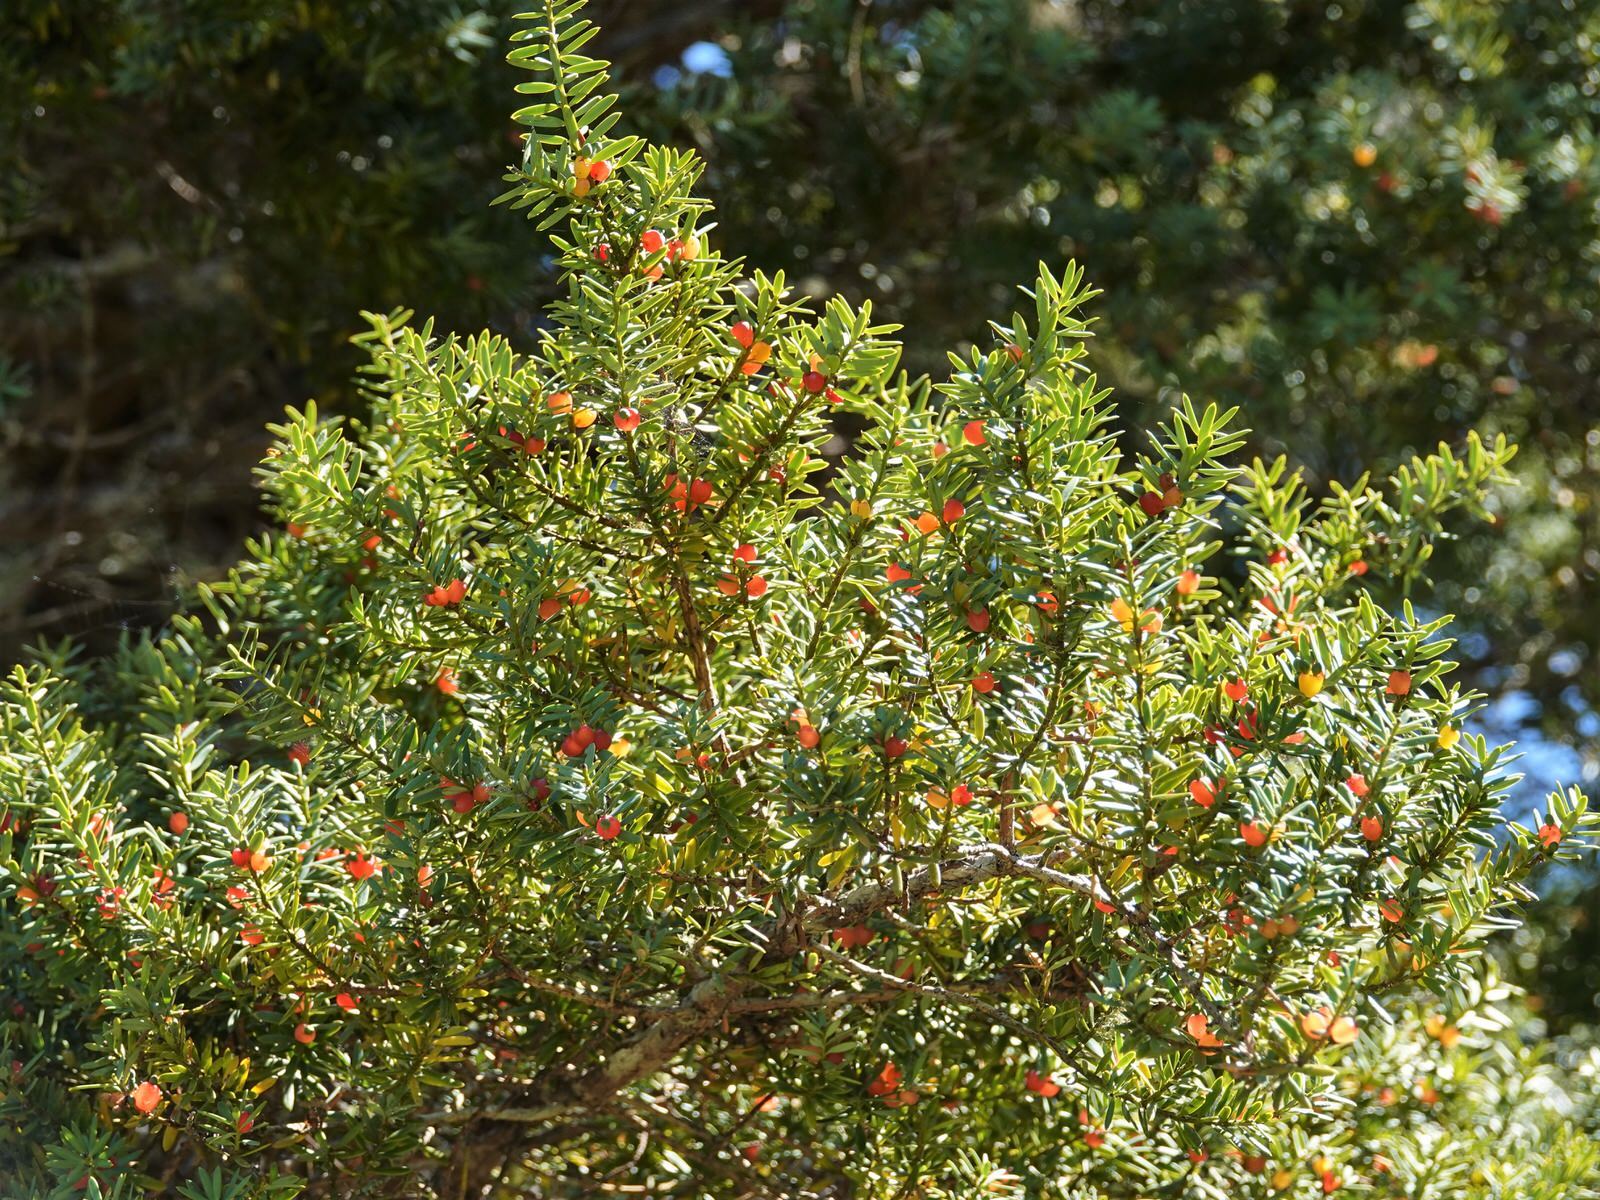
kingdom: Plantae
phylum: Tracheophyta
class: Pinopsida
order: Pinales
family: Podocarpaceae
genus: Podocarpus
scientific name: Podocarpus totara
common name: Totara
